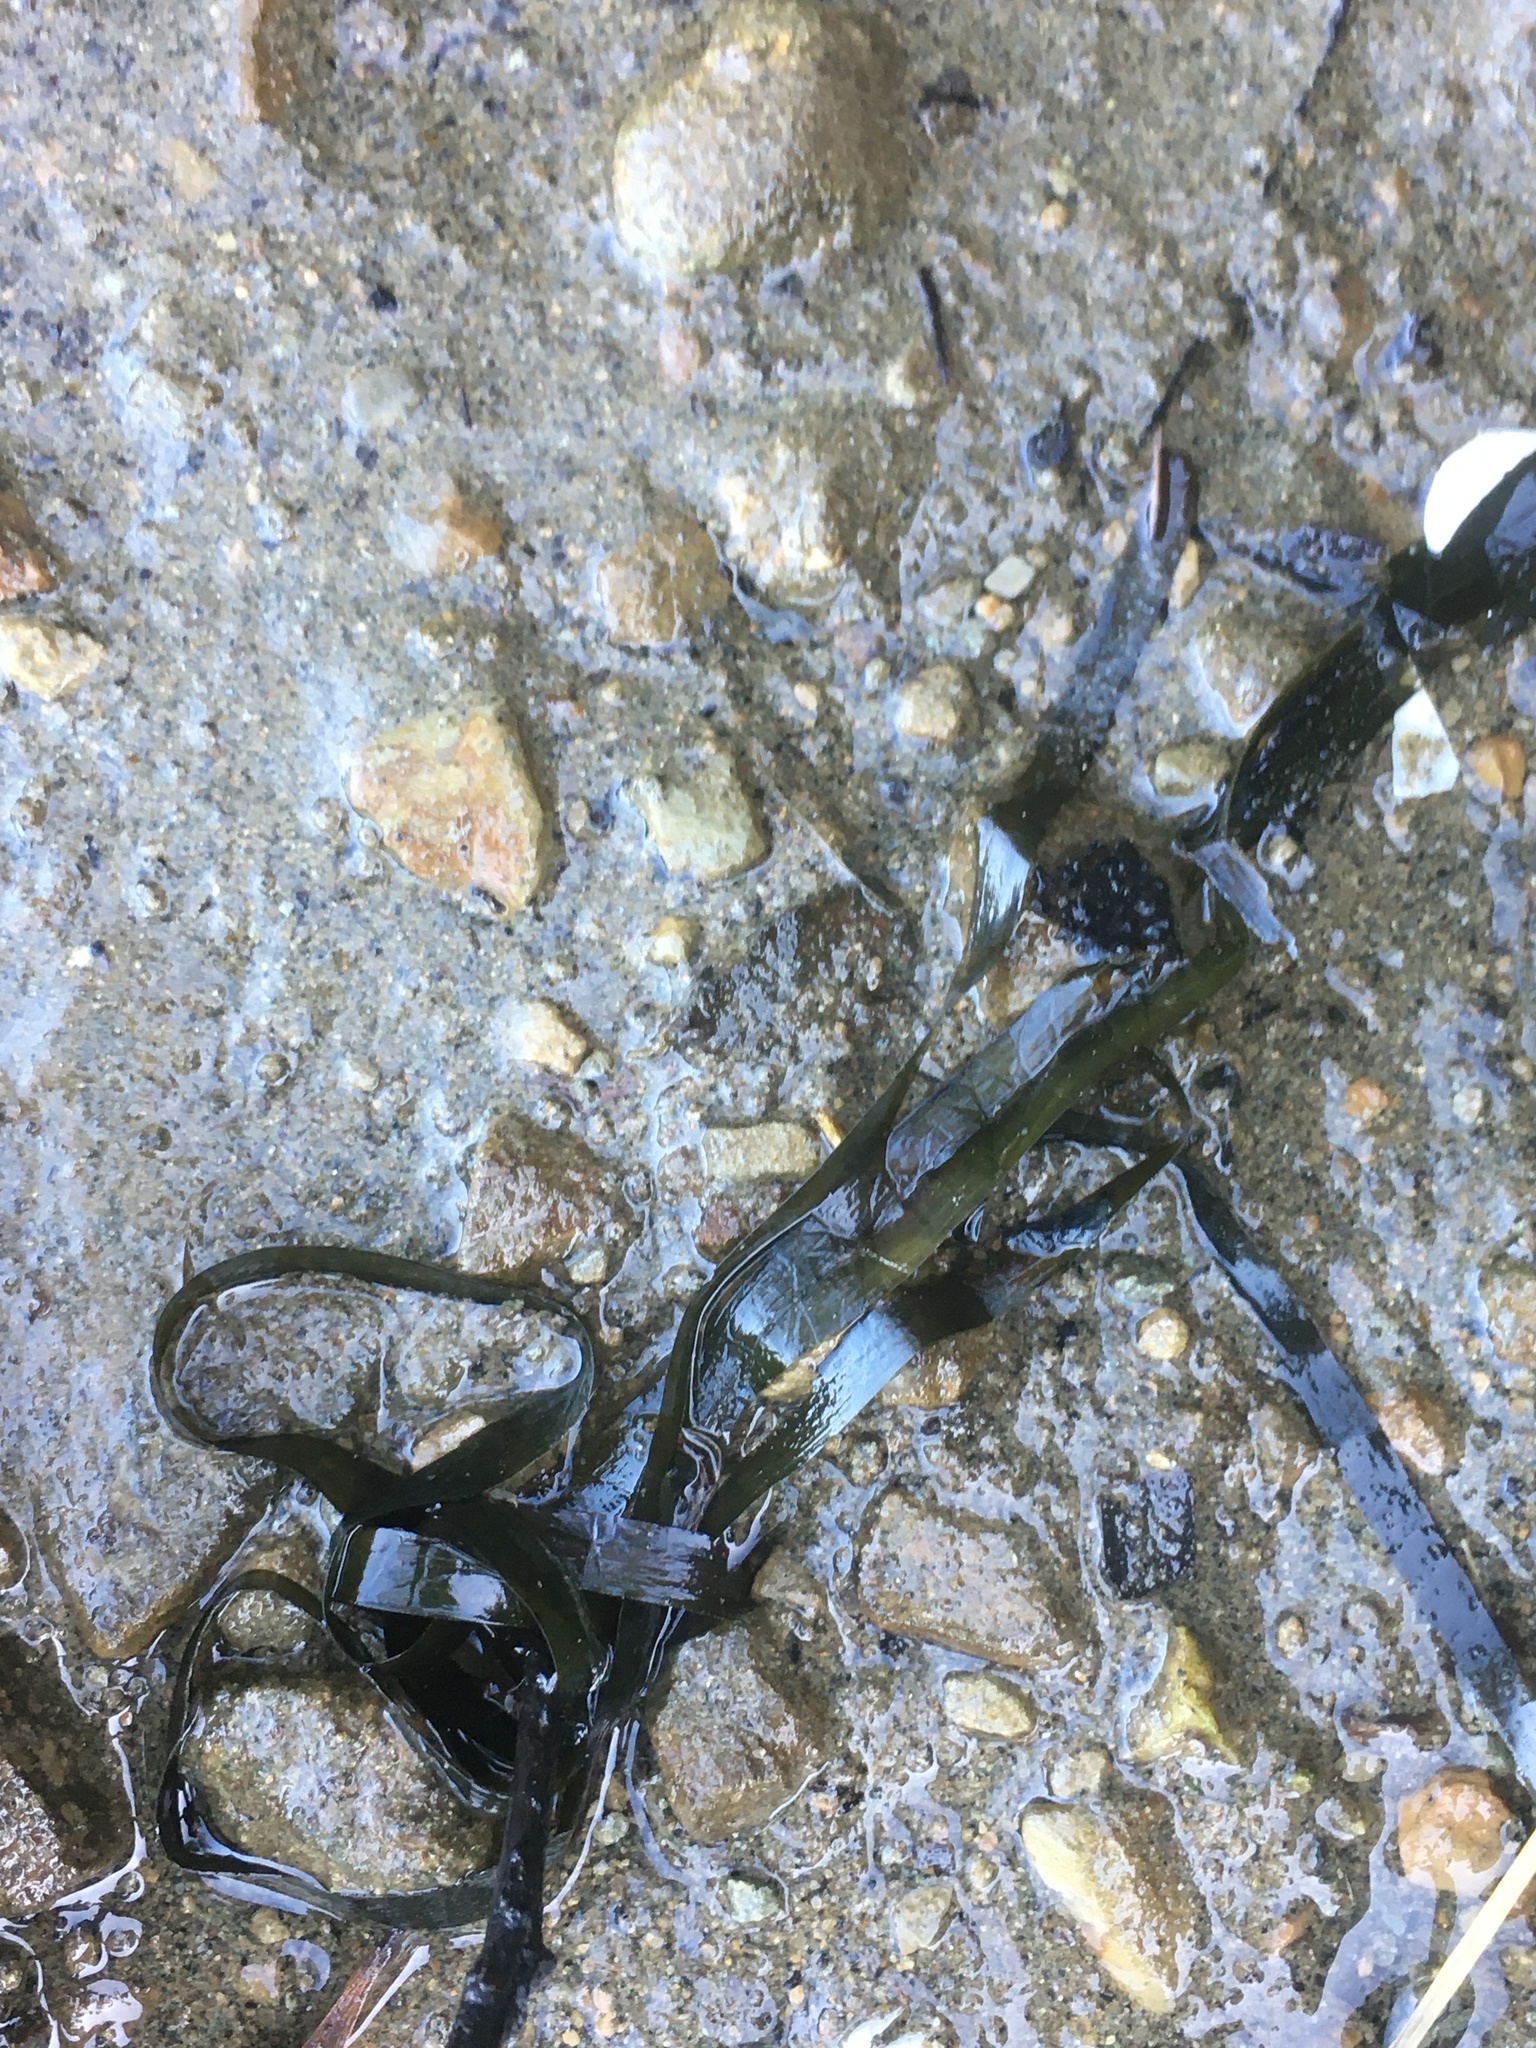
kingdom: Plantae
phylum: Tracheophyta
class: Liliopsida
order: Alismatales
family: Zosteraceae
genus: Zostera
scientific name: Zostera marina
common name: Eelgrass
